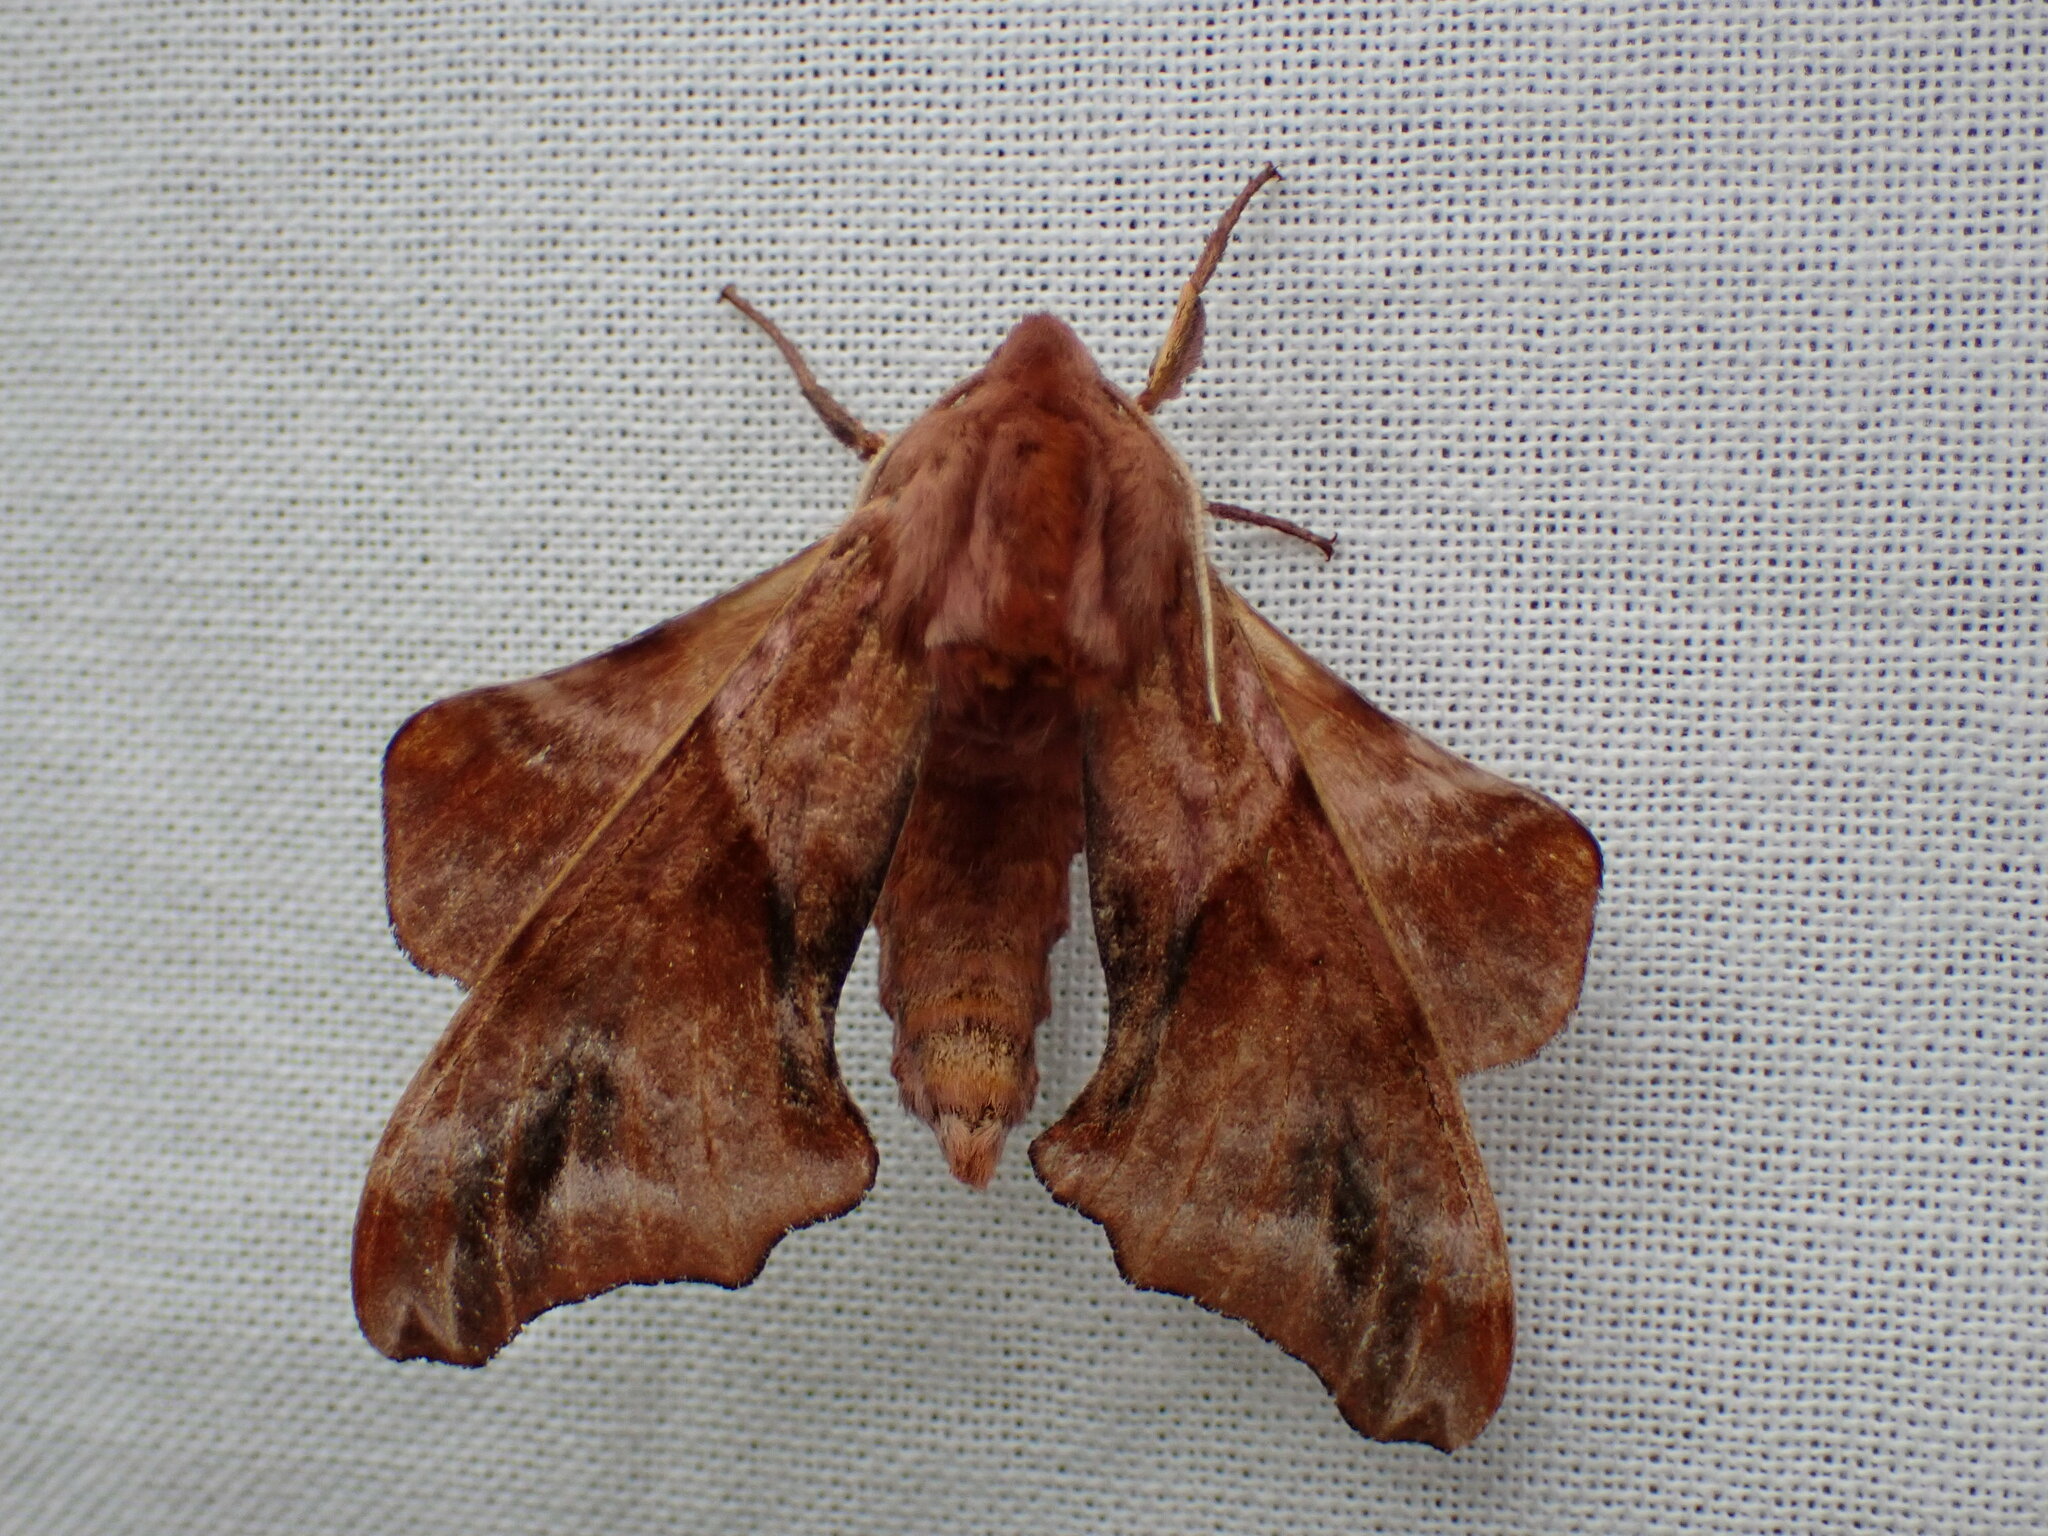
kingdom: Animalia
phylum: Arthropoda
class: Insecta
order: Lepidoptera
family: Sphingidae
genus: Paonias
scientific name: Paonias myops
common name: Small-eyed sphinx
